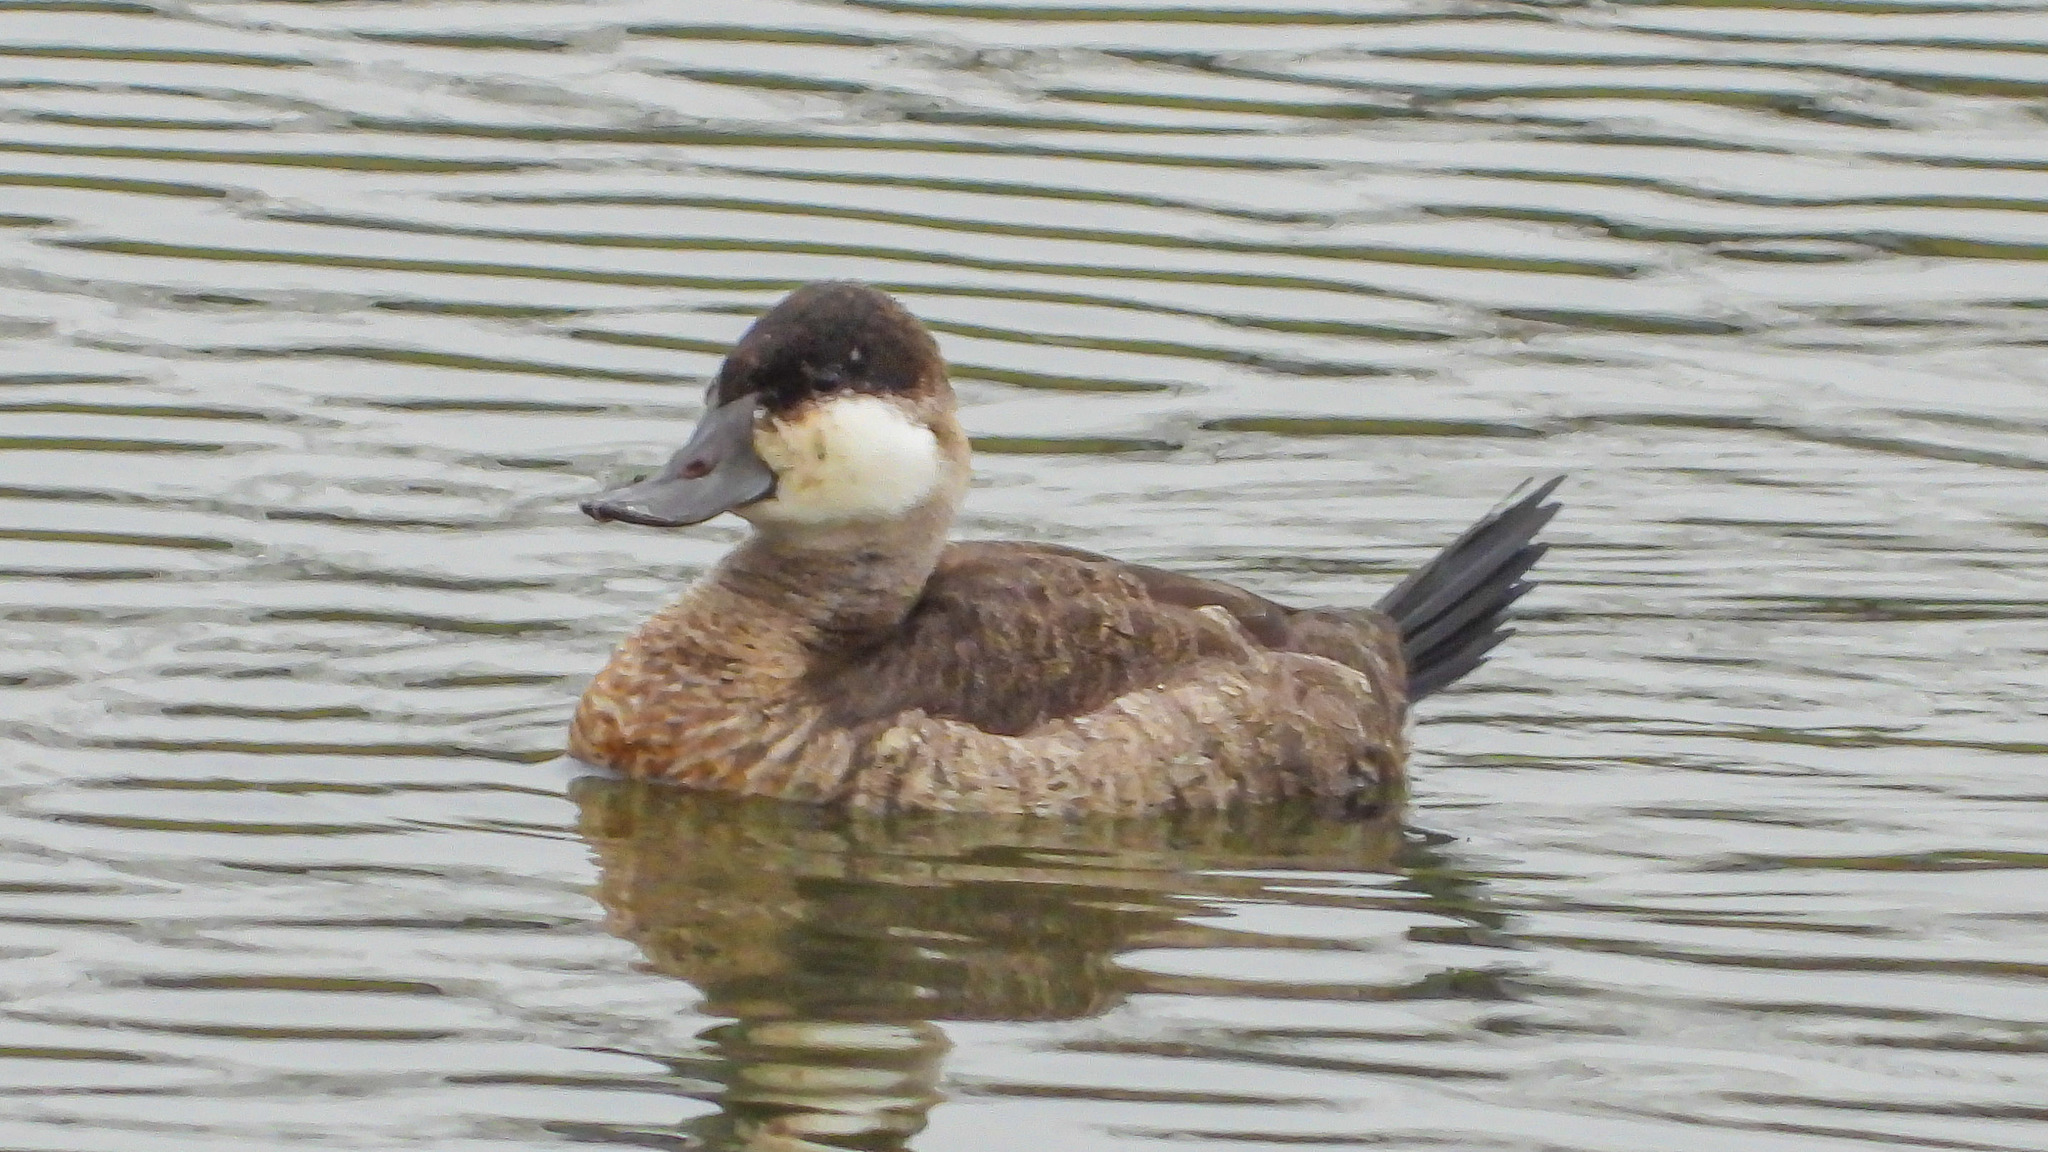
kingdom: Animalia
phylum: Chordata
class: Aves
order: Anseriformes
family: Anatidae
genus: Oxyura
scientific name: Oxyura jamaicensis
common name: Ruddy duck
